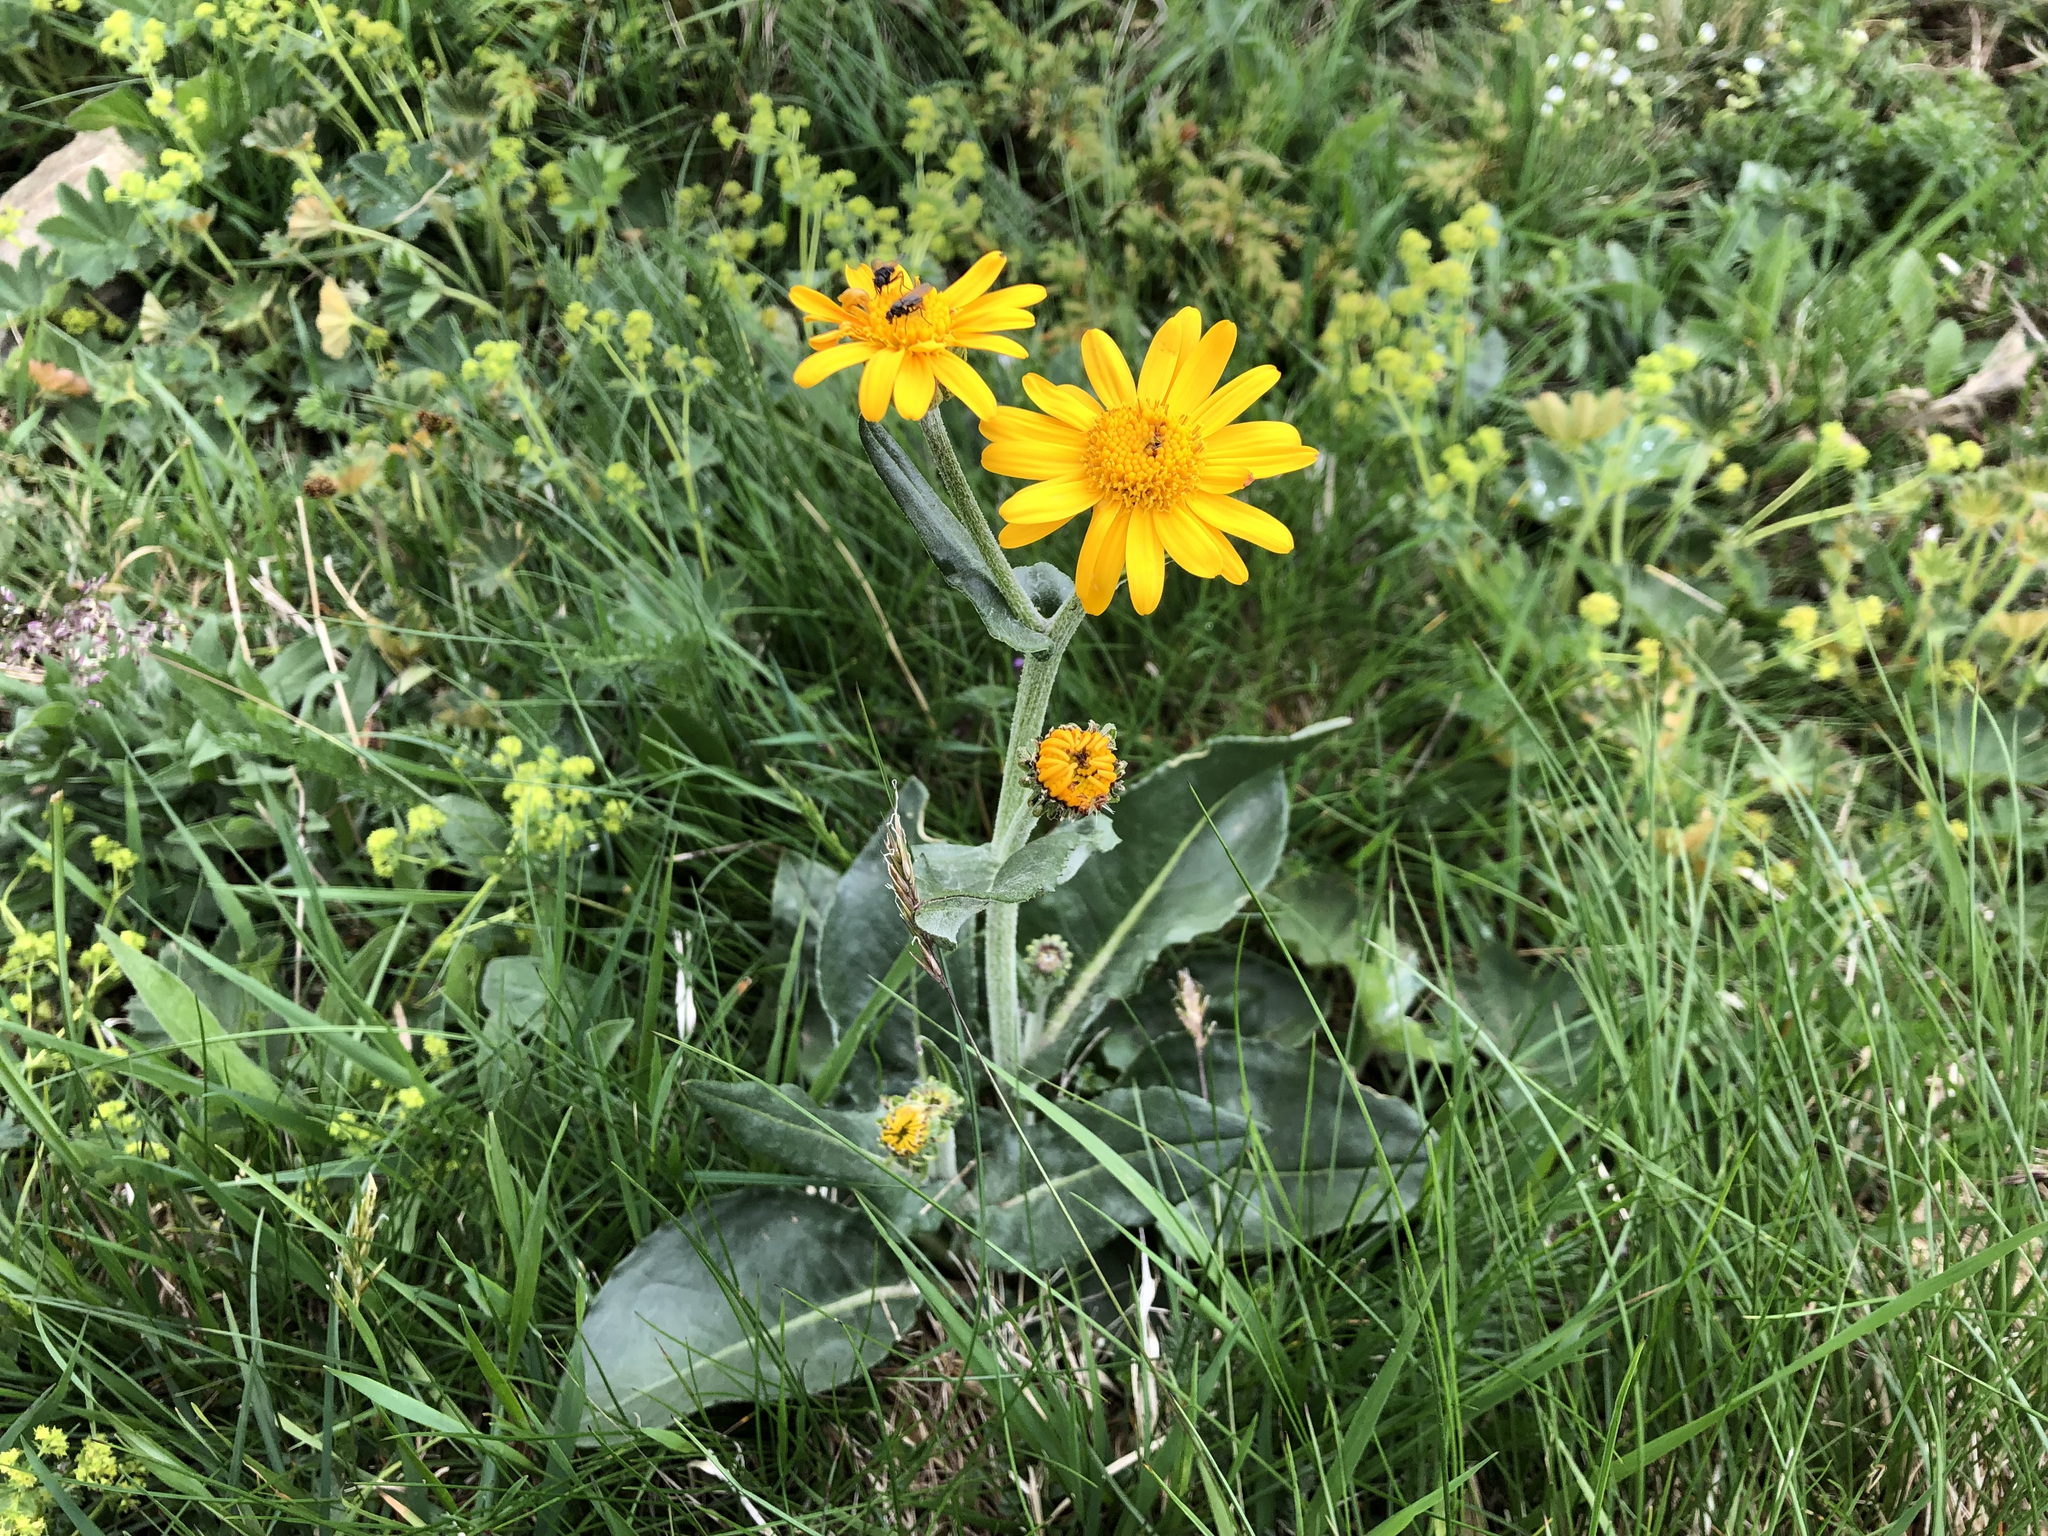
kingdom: Plantae
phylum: Tracheophyta
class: Magnoliopsida
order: Asterales
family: Asteraceae
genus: Senecio
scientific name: Senecio doronicum
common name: Chamois ragwort
